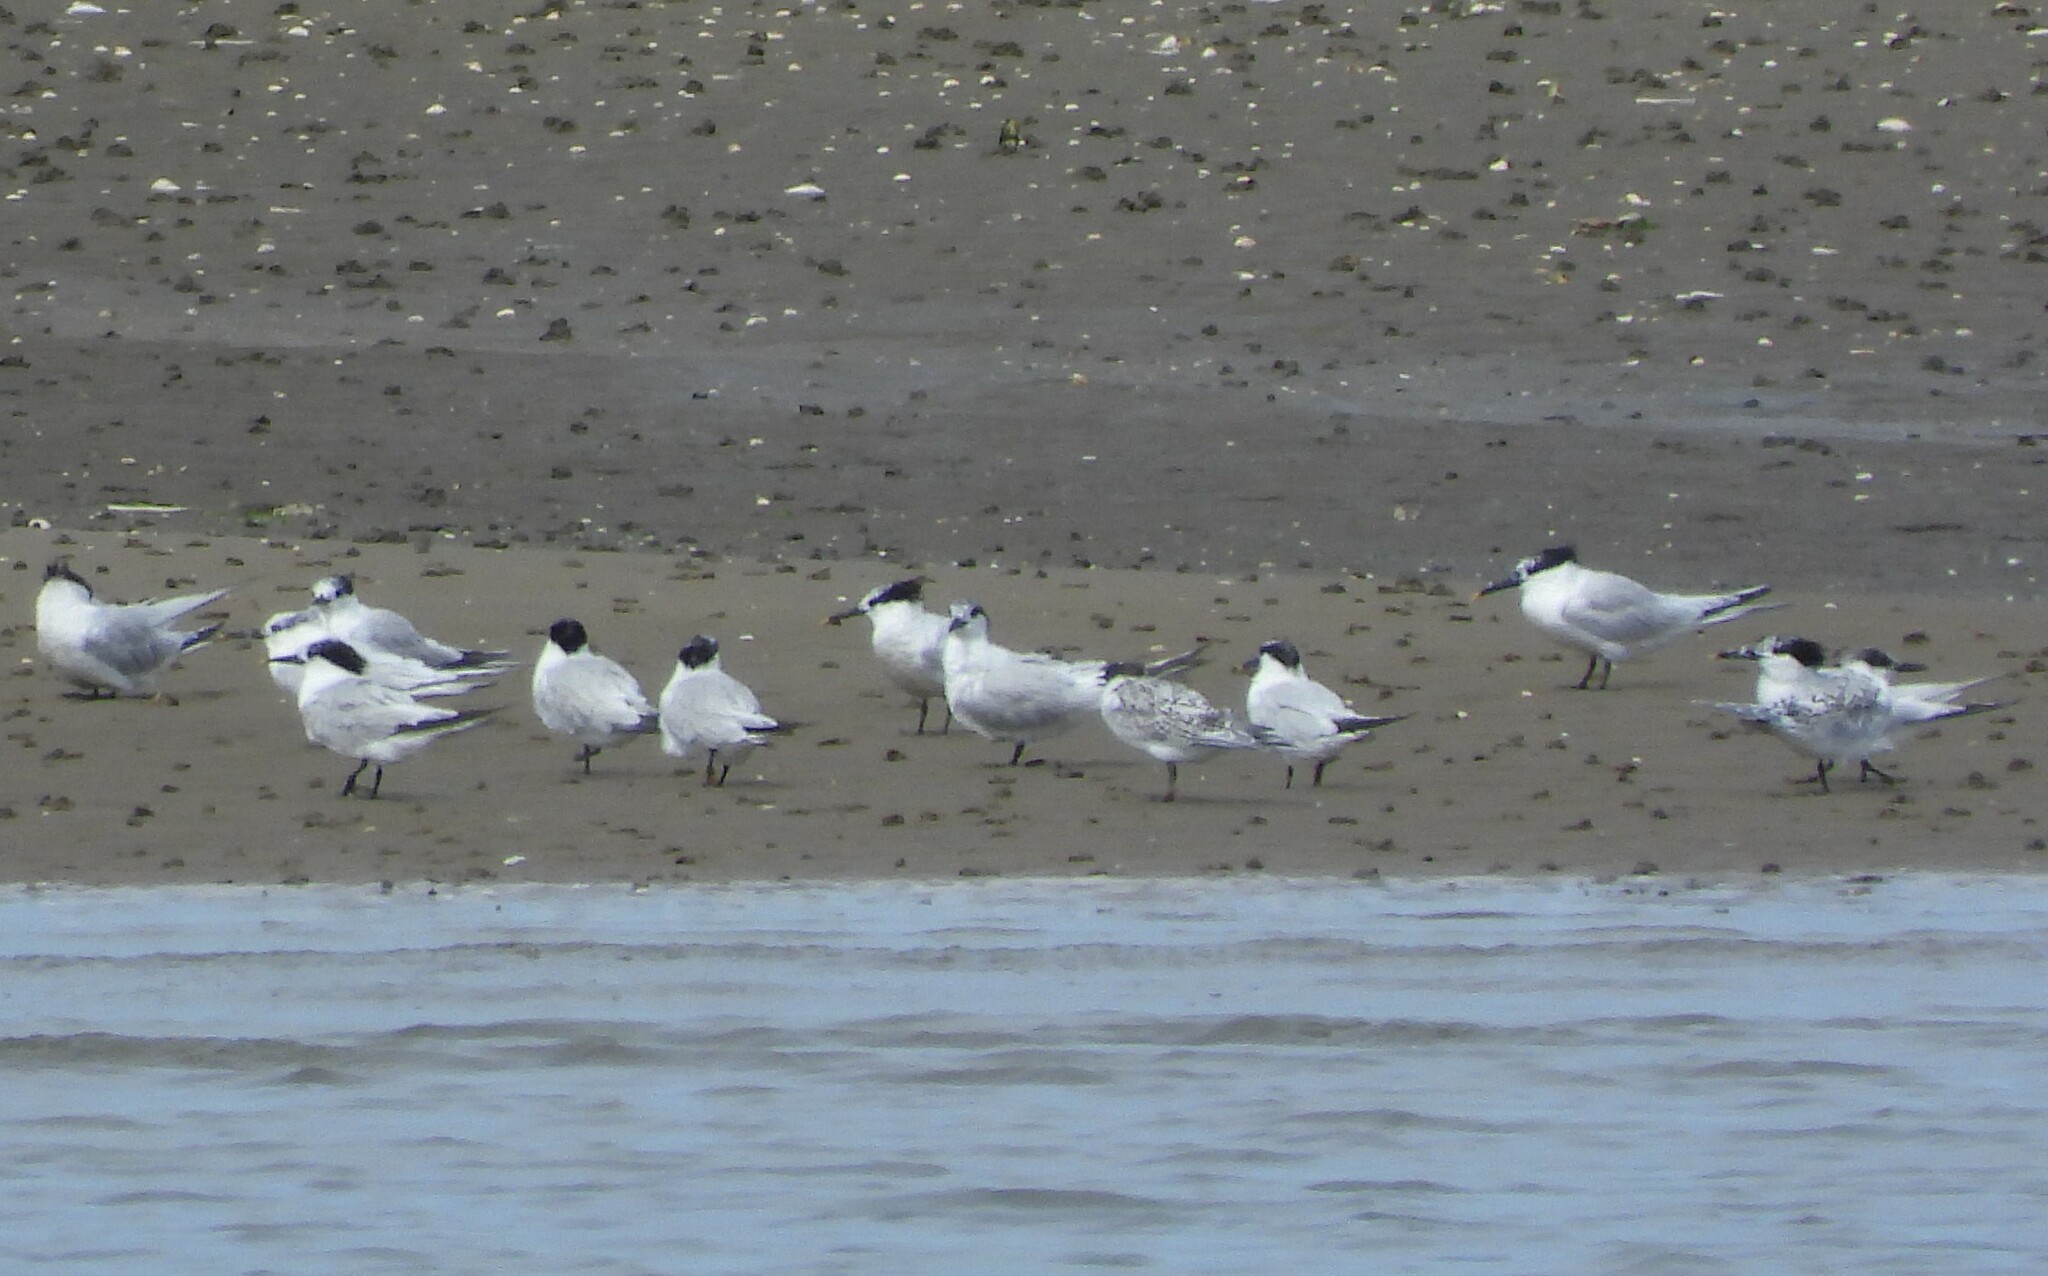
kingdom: Animalia
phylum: Chordata
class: Aves
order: Charadriiformes
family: Laridae
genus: Thalasseus
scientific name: Thalasseus sandvicensis
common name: Sandwich tern
